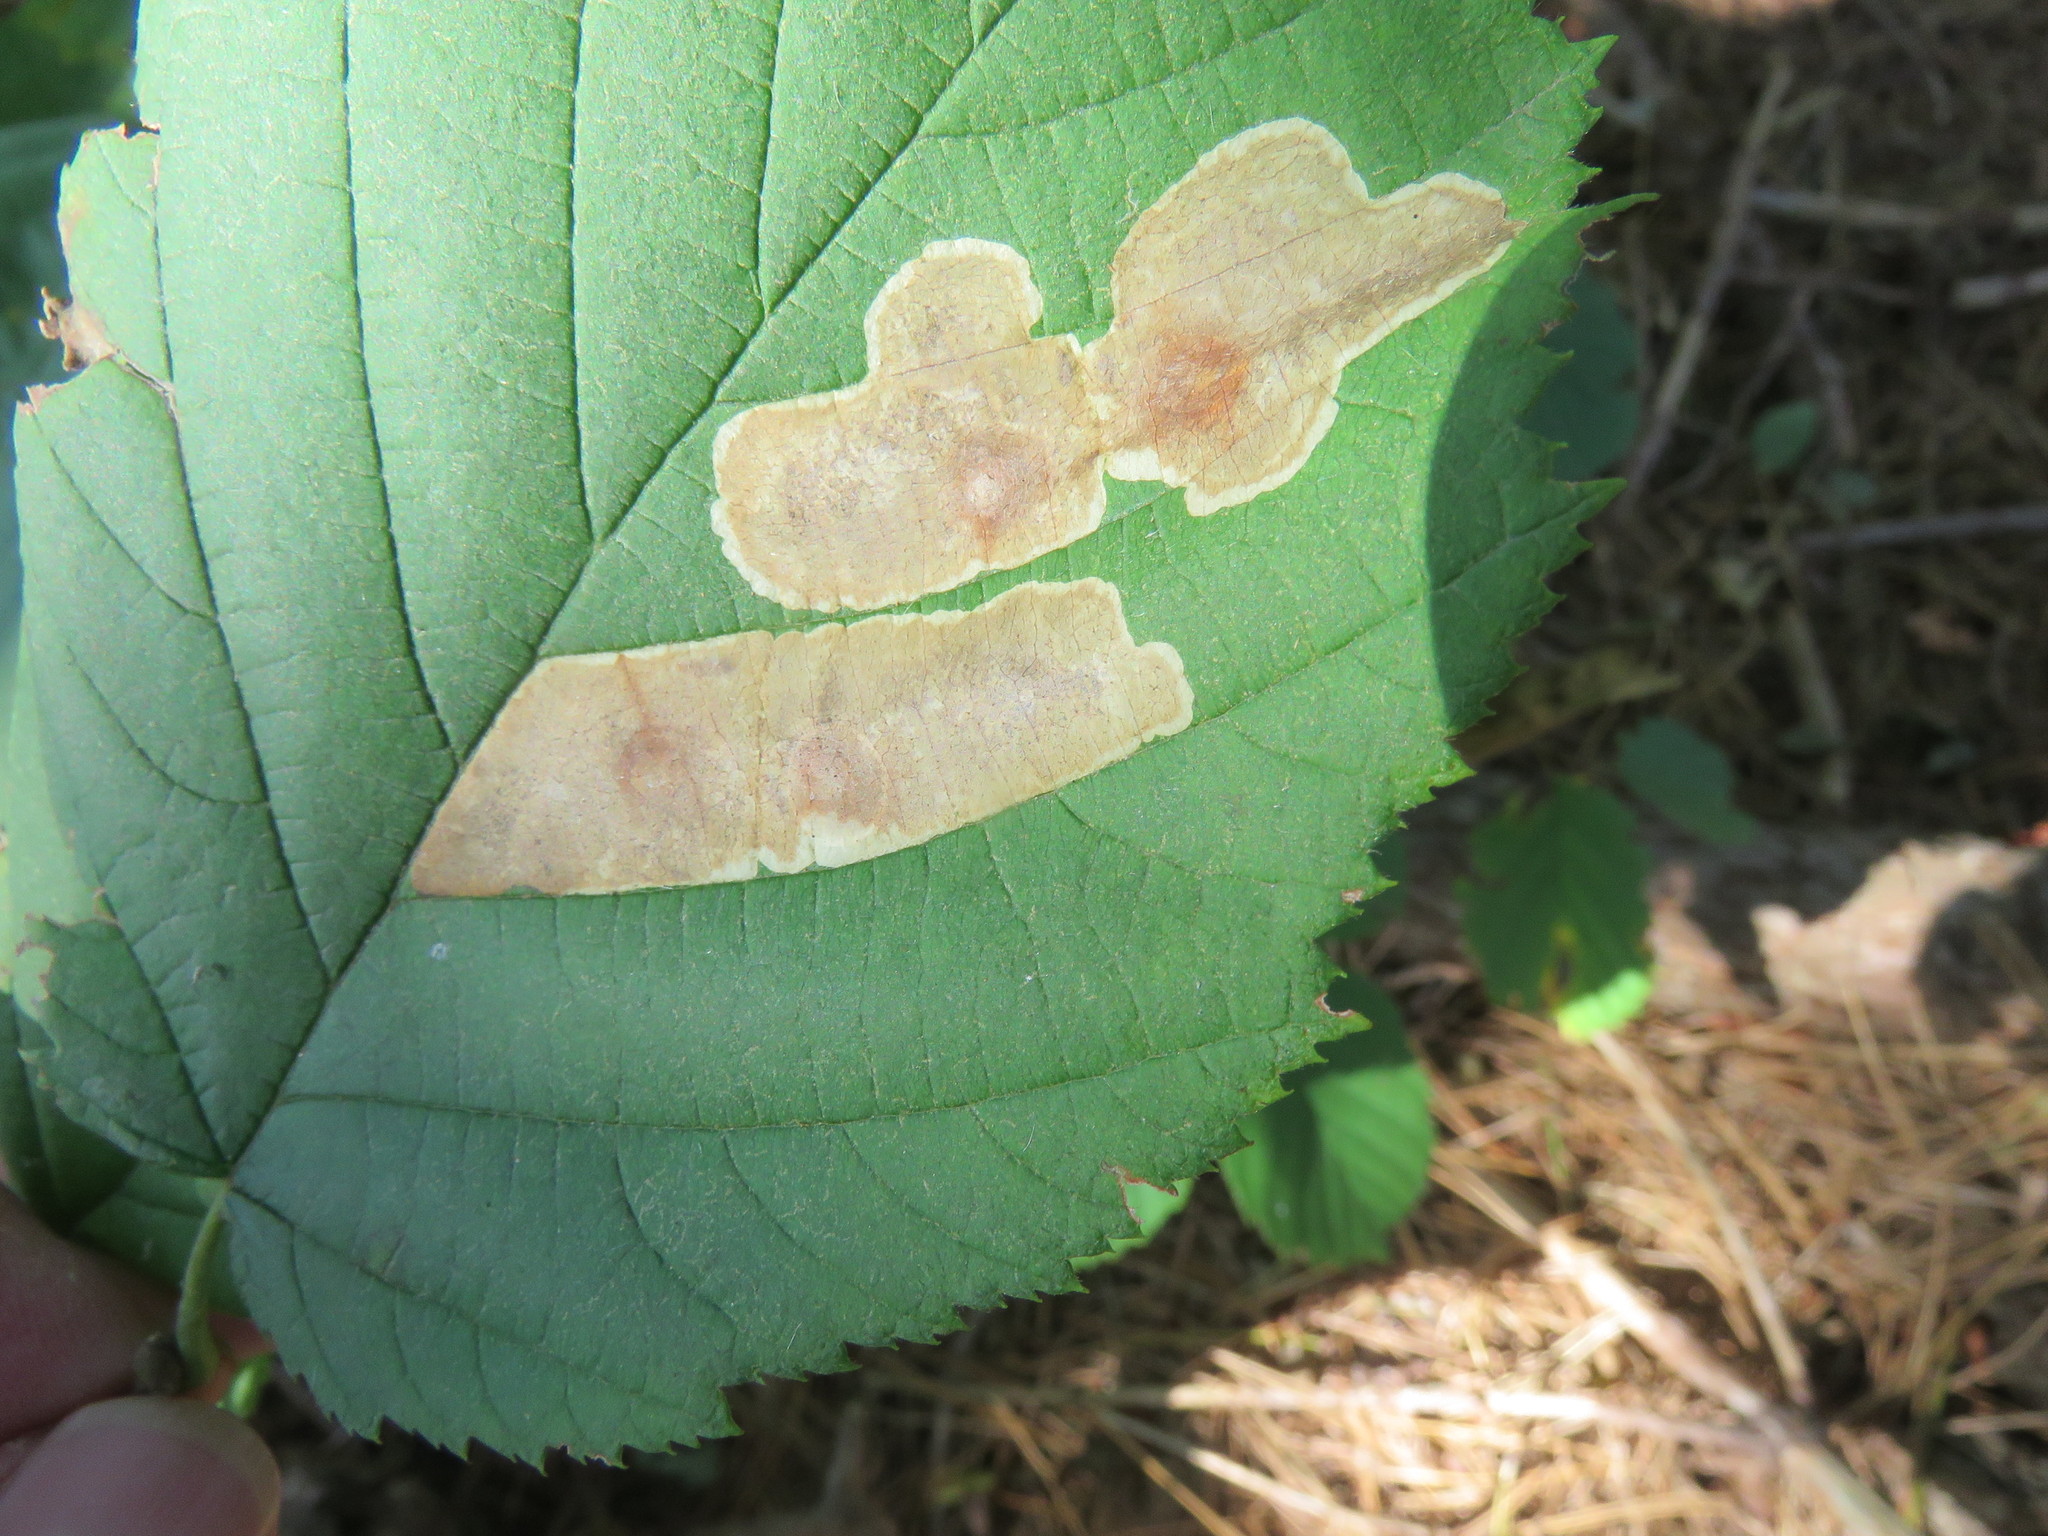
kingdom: Animalia
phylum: Arthropoda
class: Insecta
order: Lepidoptera
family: Gracillariidae
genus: Cameraria
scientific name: Cameraria corylisella
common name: Hazel blotchminer
